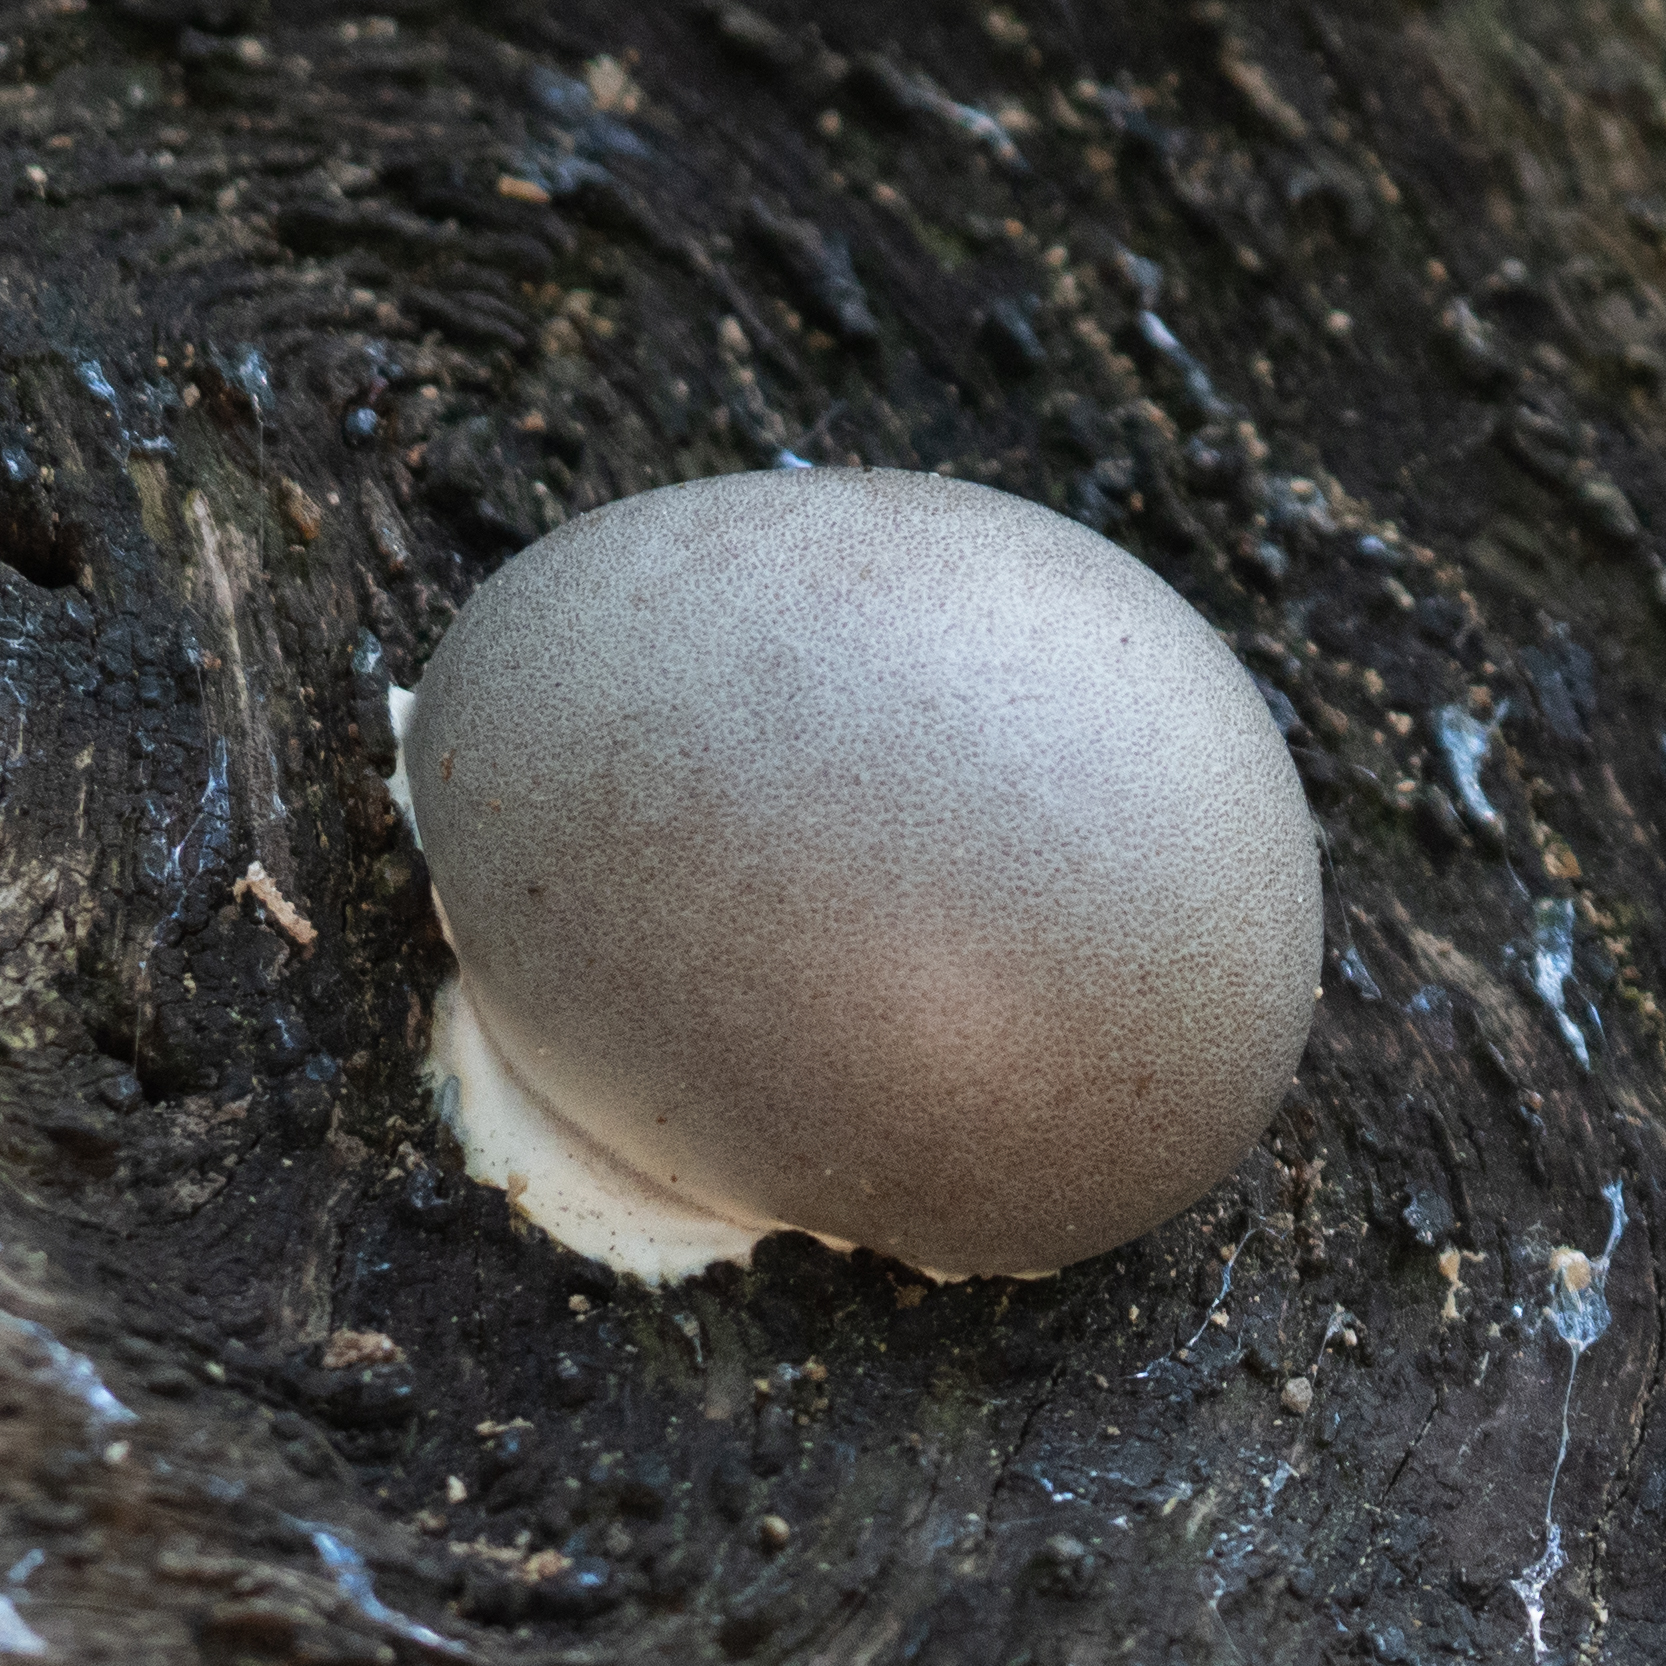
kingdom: Protozoa
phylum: Mycetozoa
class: Myxomycetes
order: Cribrariales
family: Tubiferaceae
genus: Lycogala
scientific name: Lycogala flavofuscum
